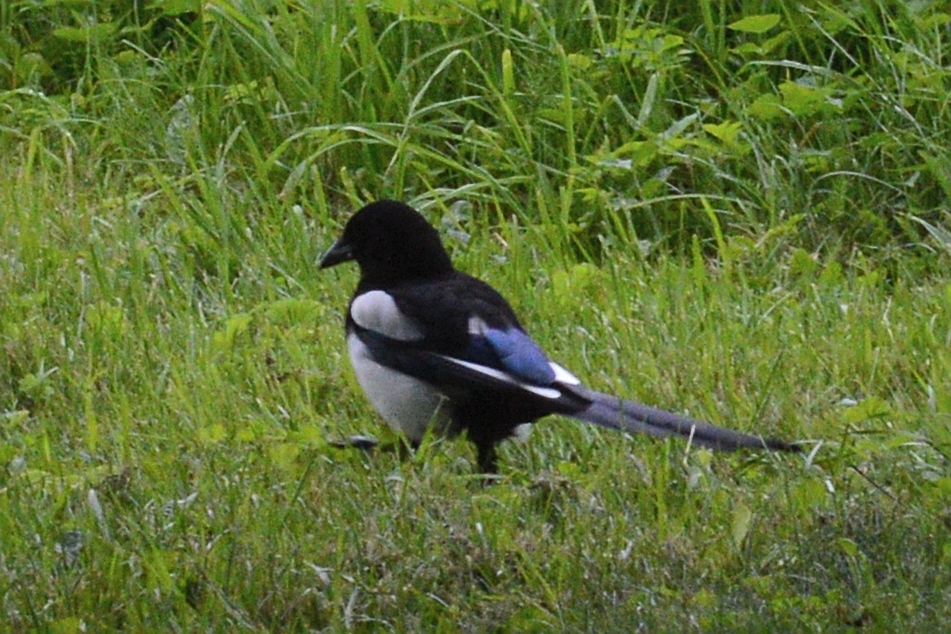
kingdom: Animalia
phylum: Chordata
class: Aves
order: Passeriformes
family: Corvidae
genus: Pica
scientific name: Pica pica
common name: Eurasian magpie
